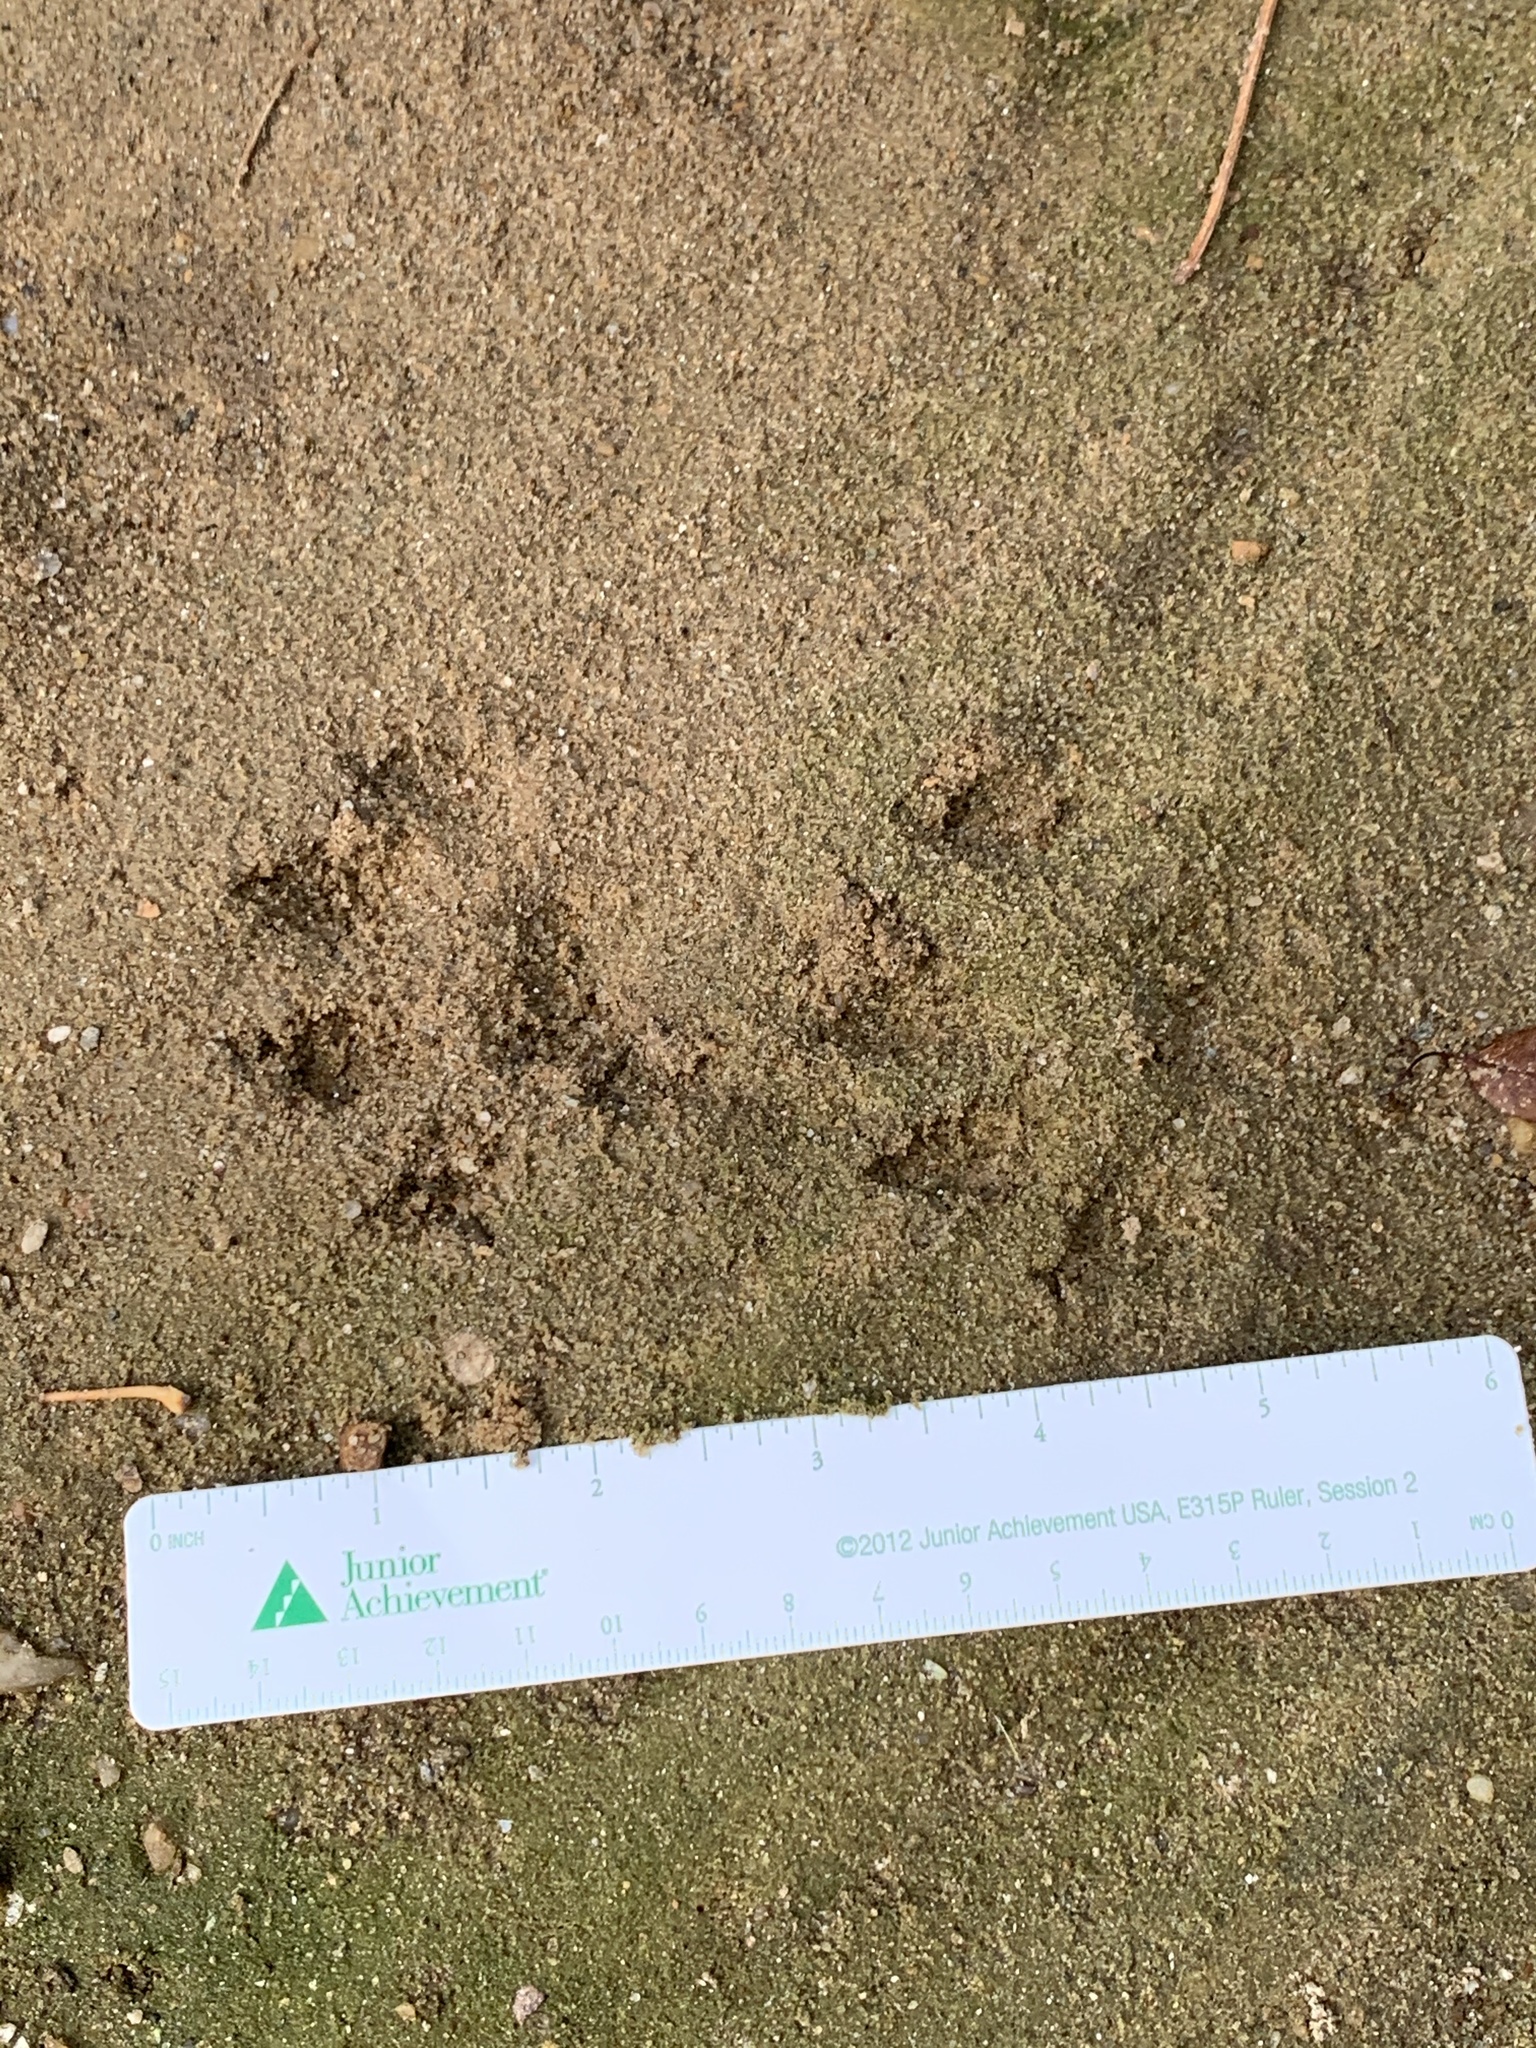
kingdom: Animalia
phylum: Chordata
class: Mammalia
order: Carnivora
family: Mustelidae
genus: Lontra
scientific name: Lontra canadensis
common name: North american river otter
